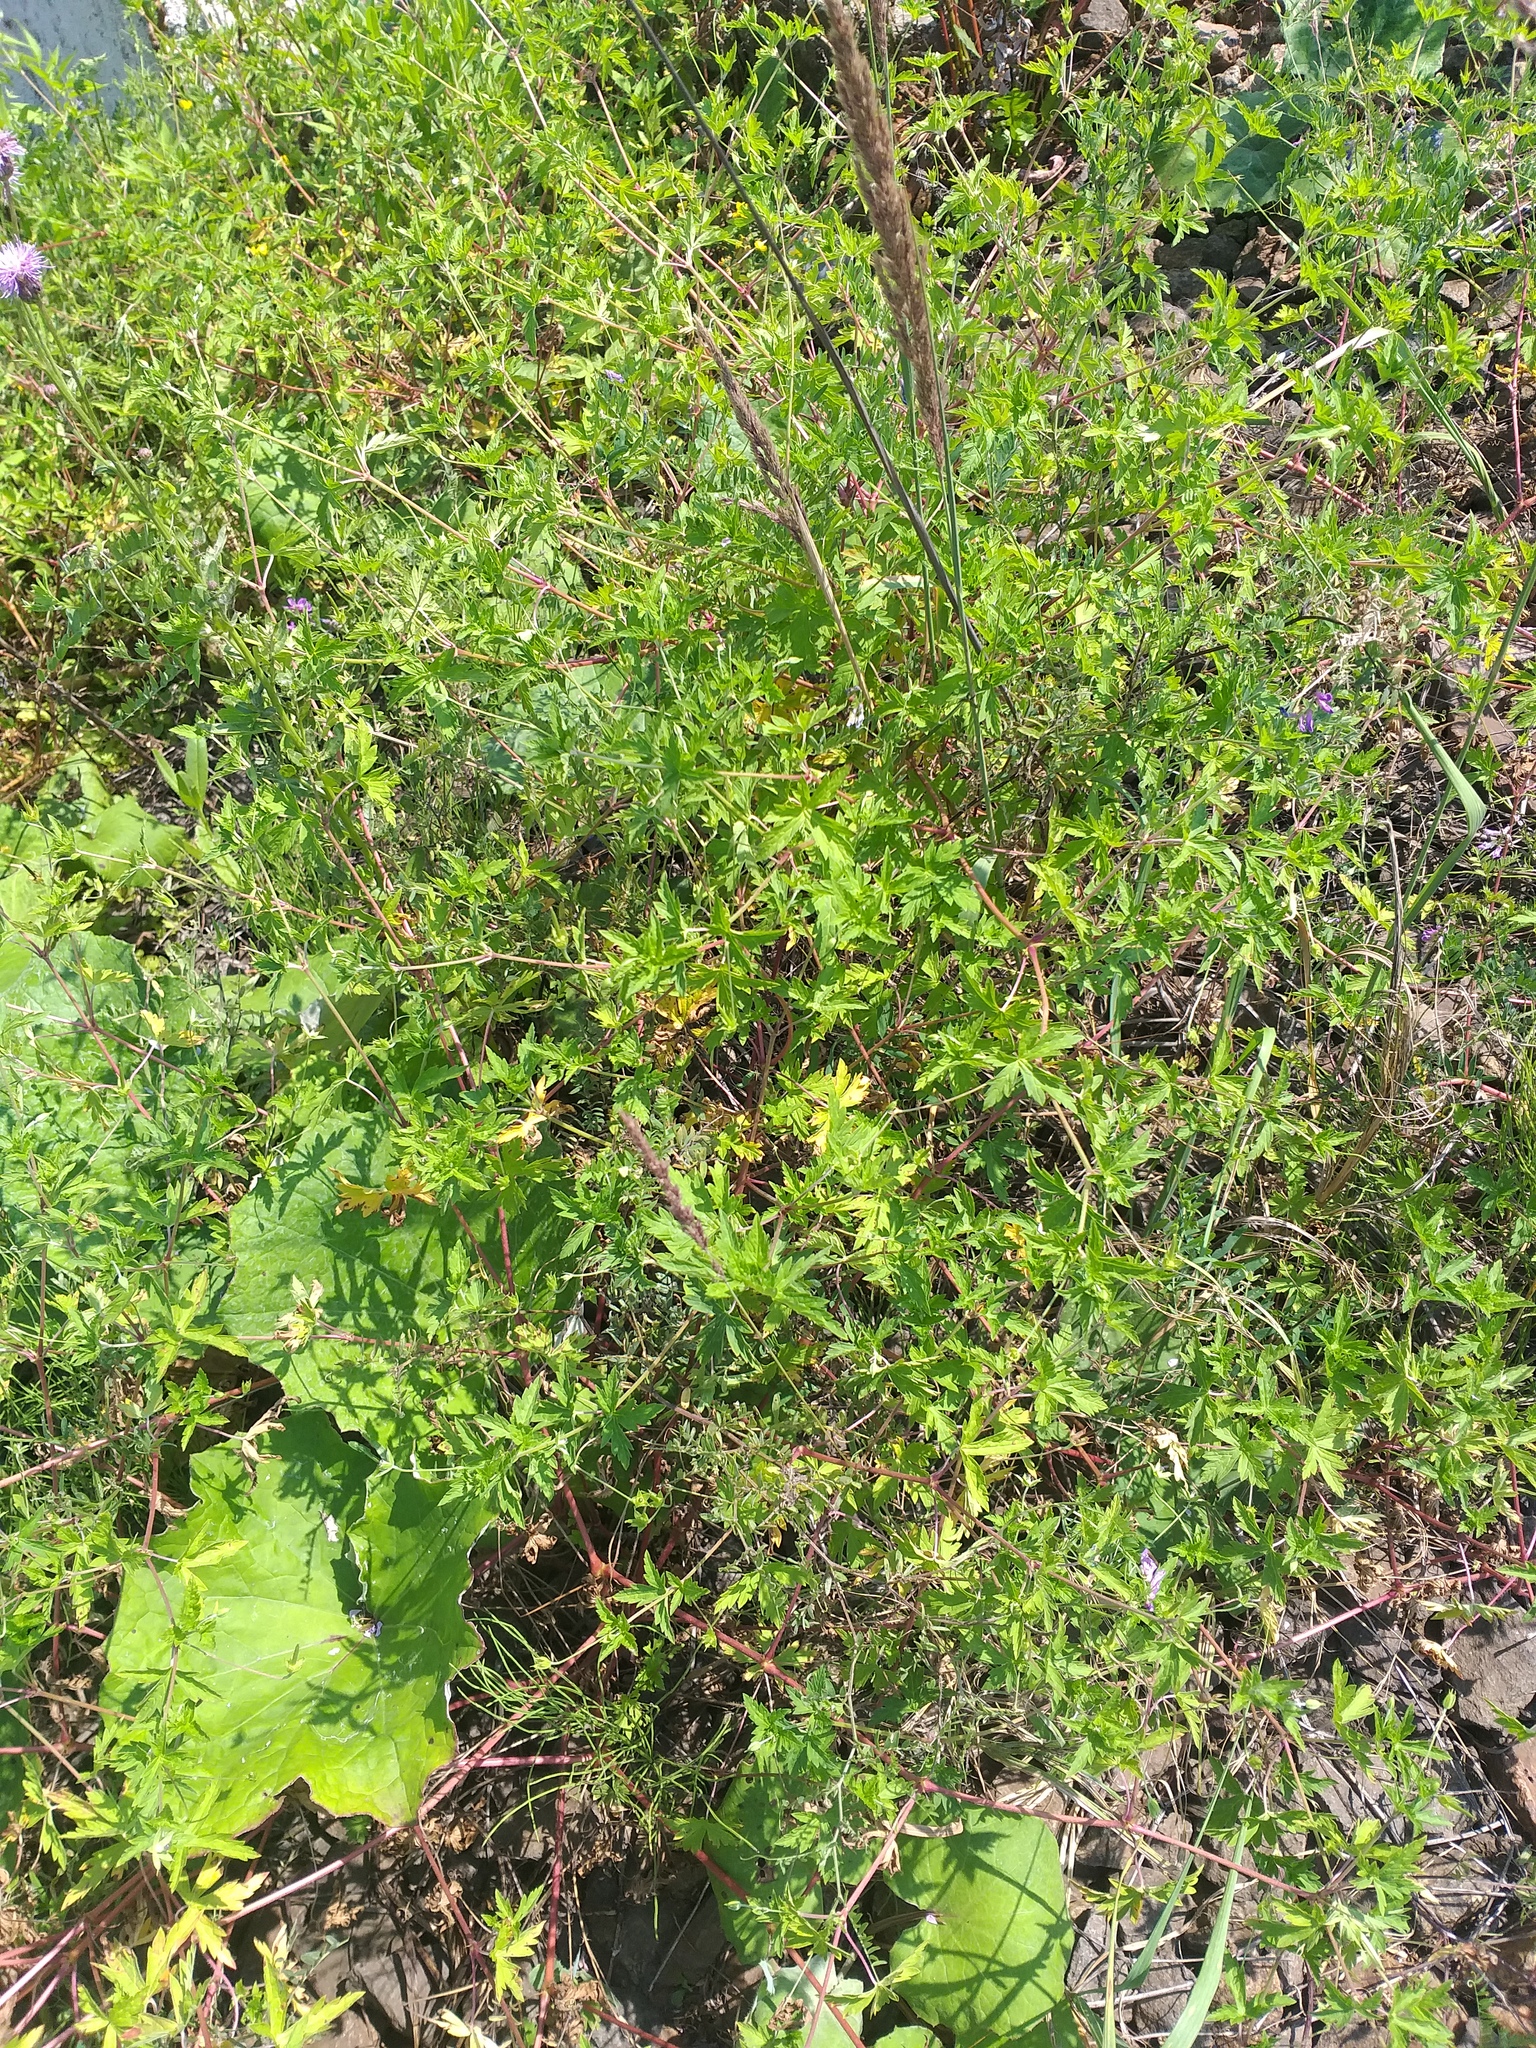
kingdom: Plantae
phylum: Tracheophyta
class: Magnoliopsida
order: Geraniales
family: Geraniaceae
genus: Geranium
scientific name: Geranium sibiricum
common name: Siberian crane's-bill
